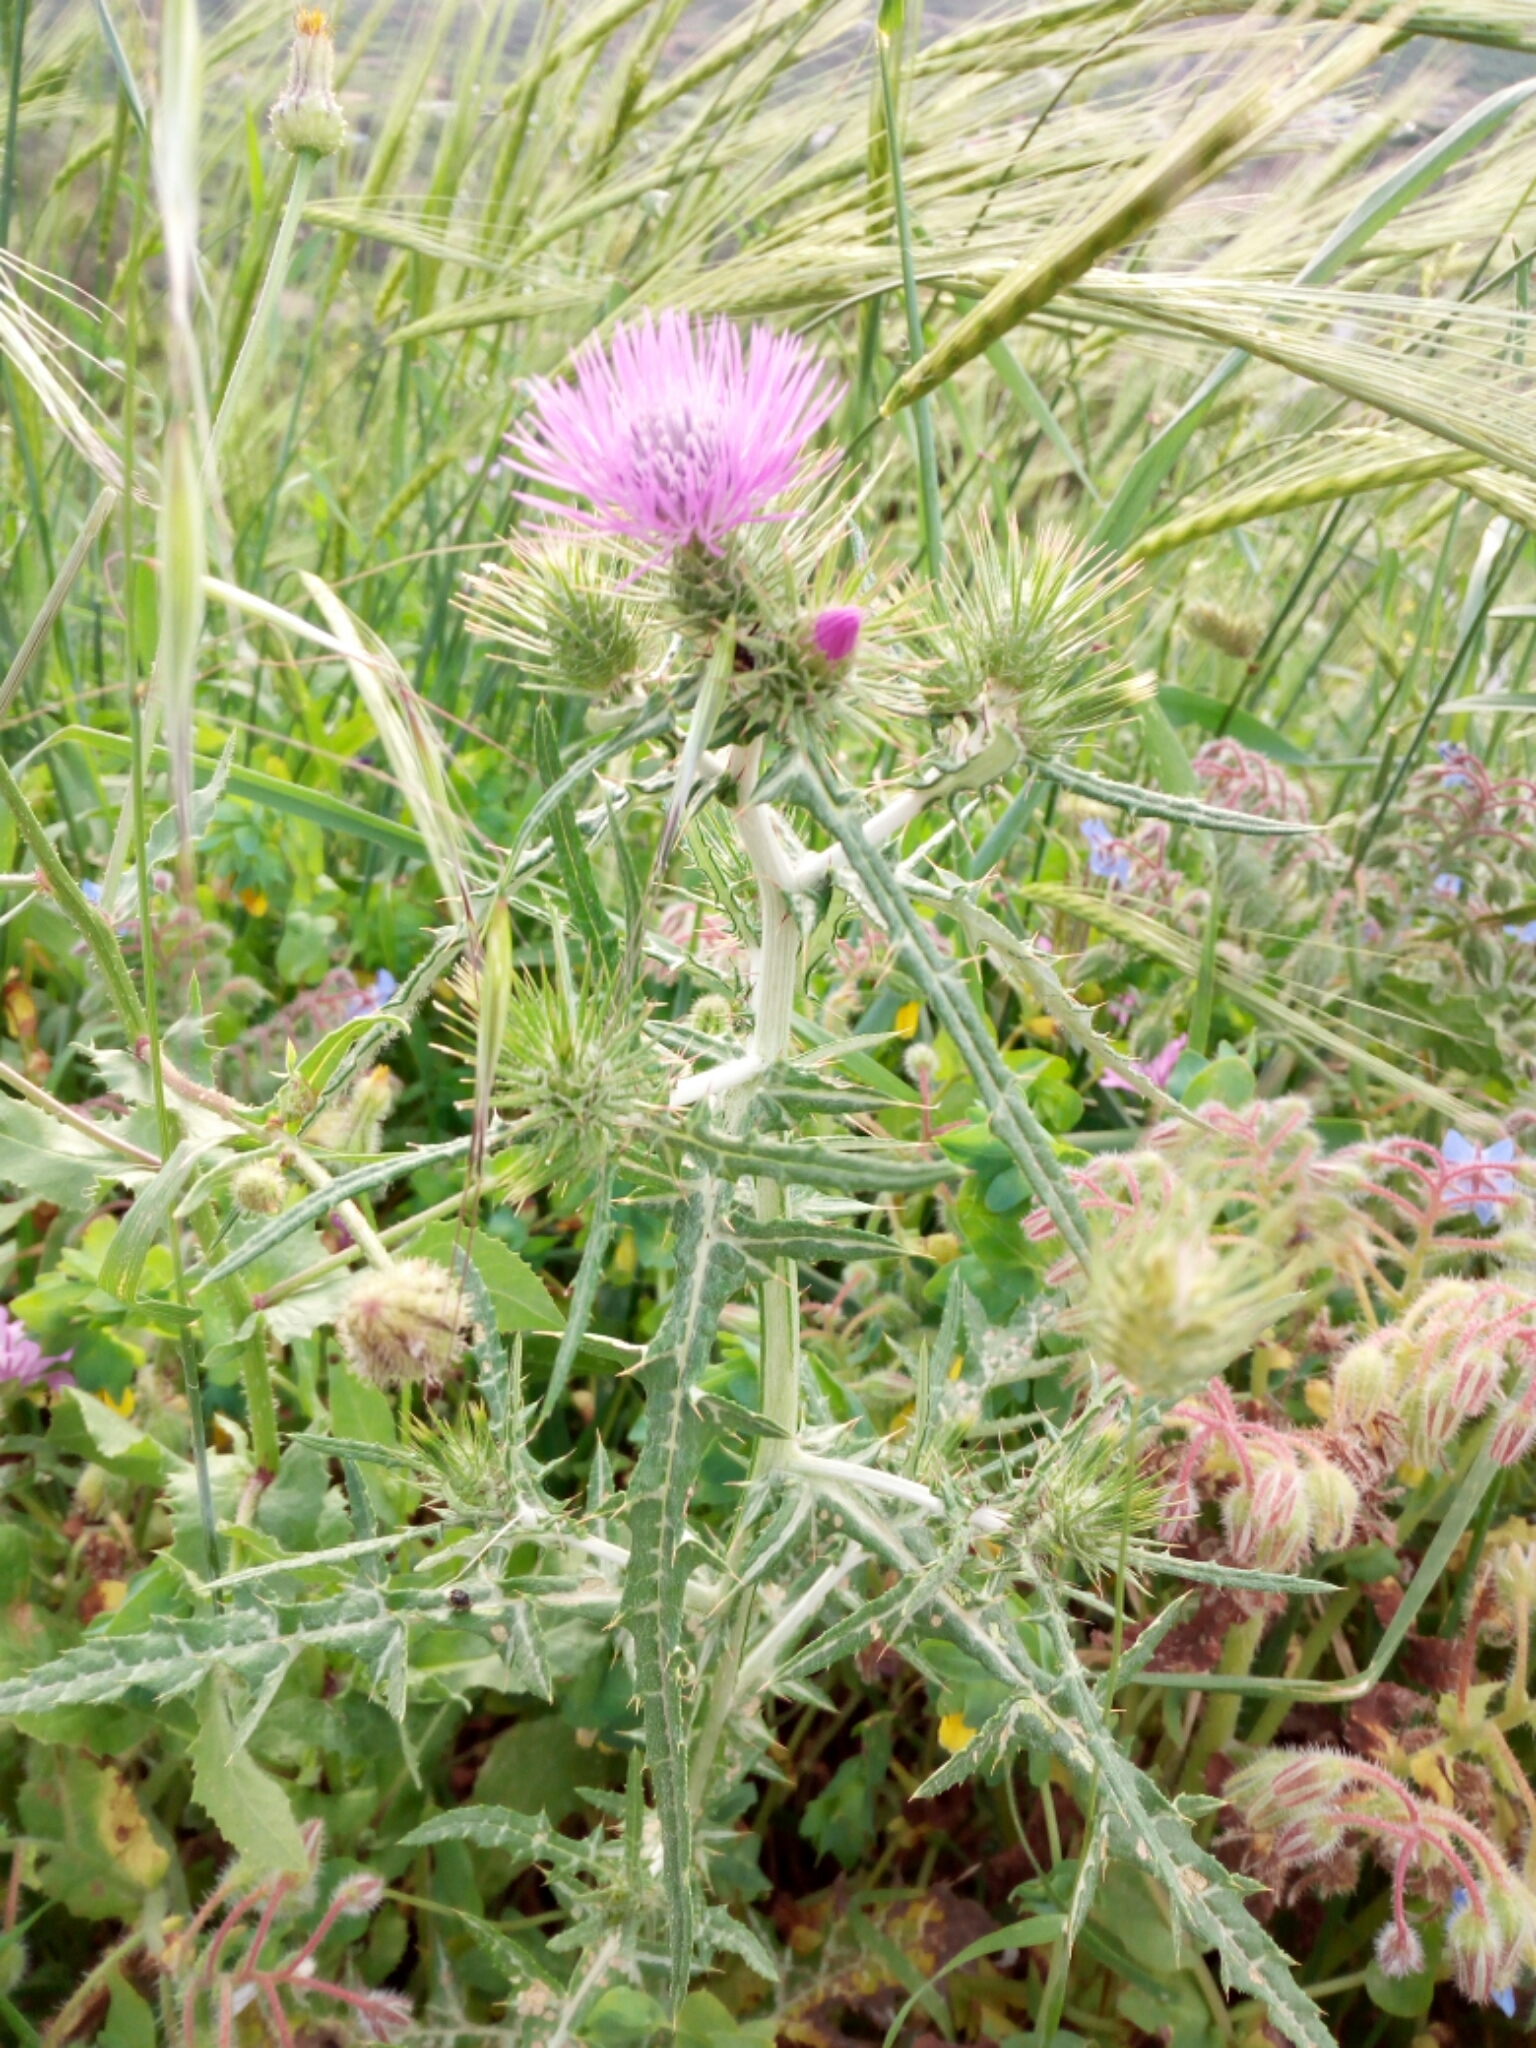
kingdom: Plantae
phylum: Tracheophyta
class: Magnoliopsida
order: Asterales
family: Asteraceae
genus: Galactites
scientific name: Galactites tomentosa
